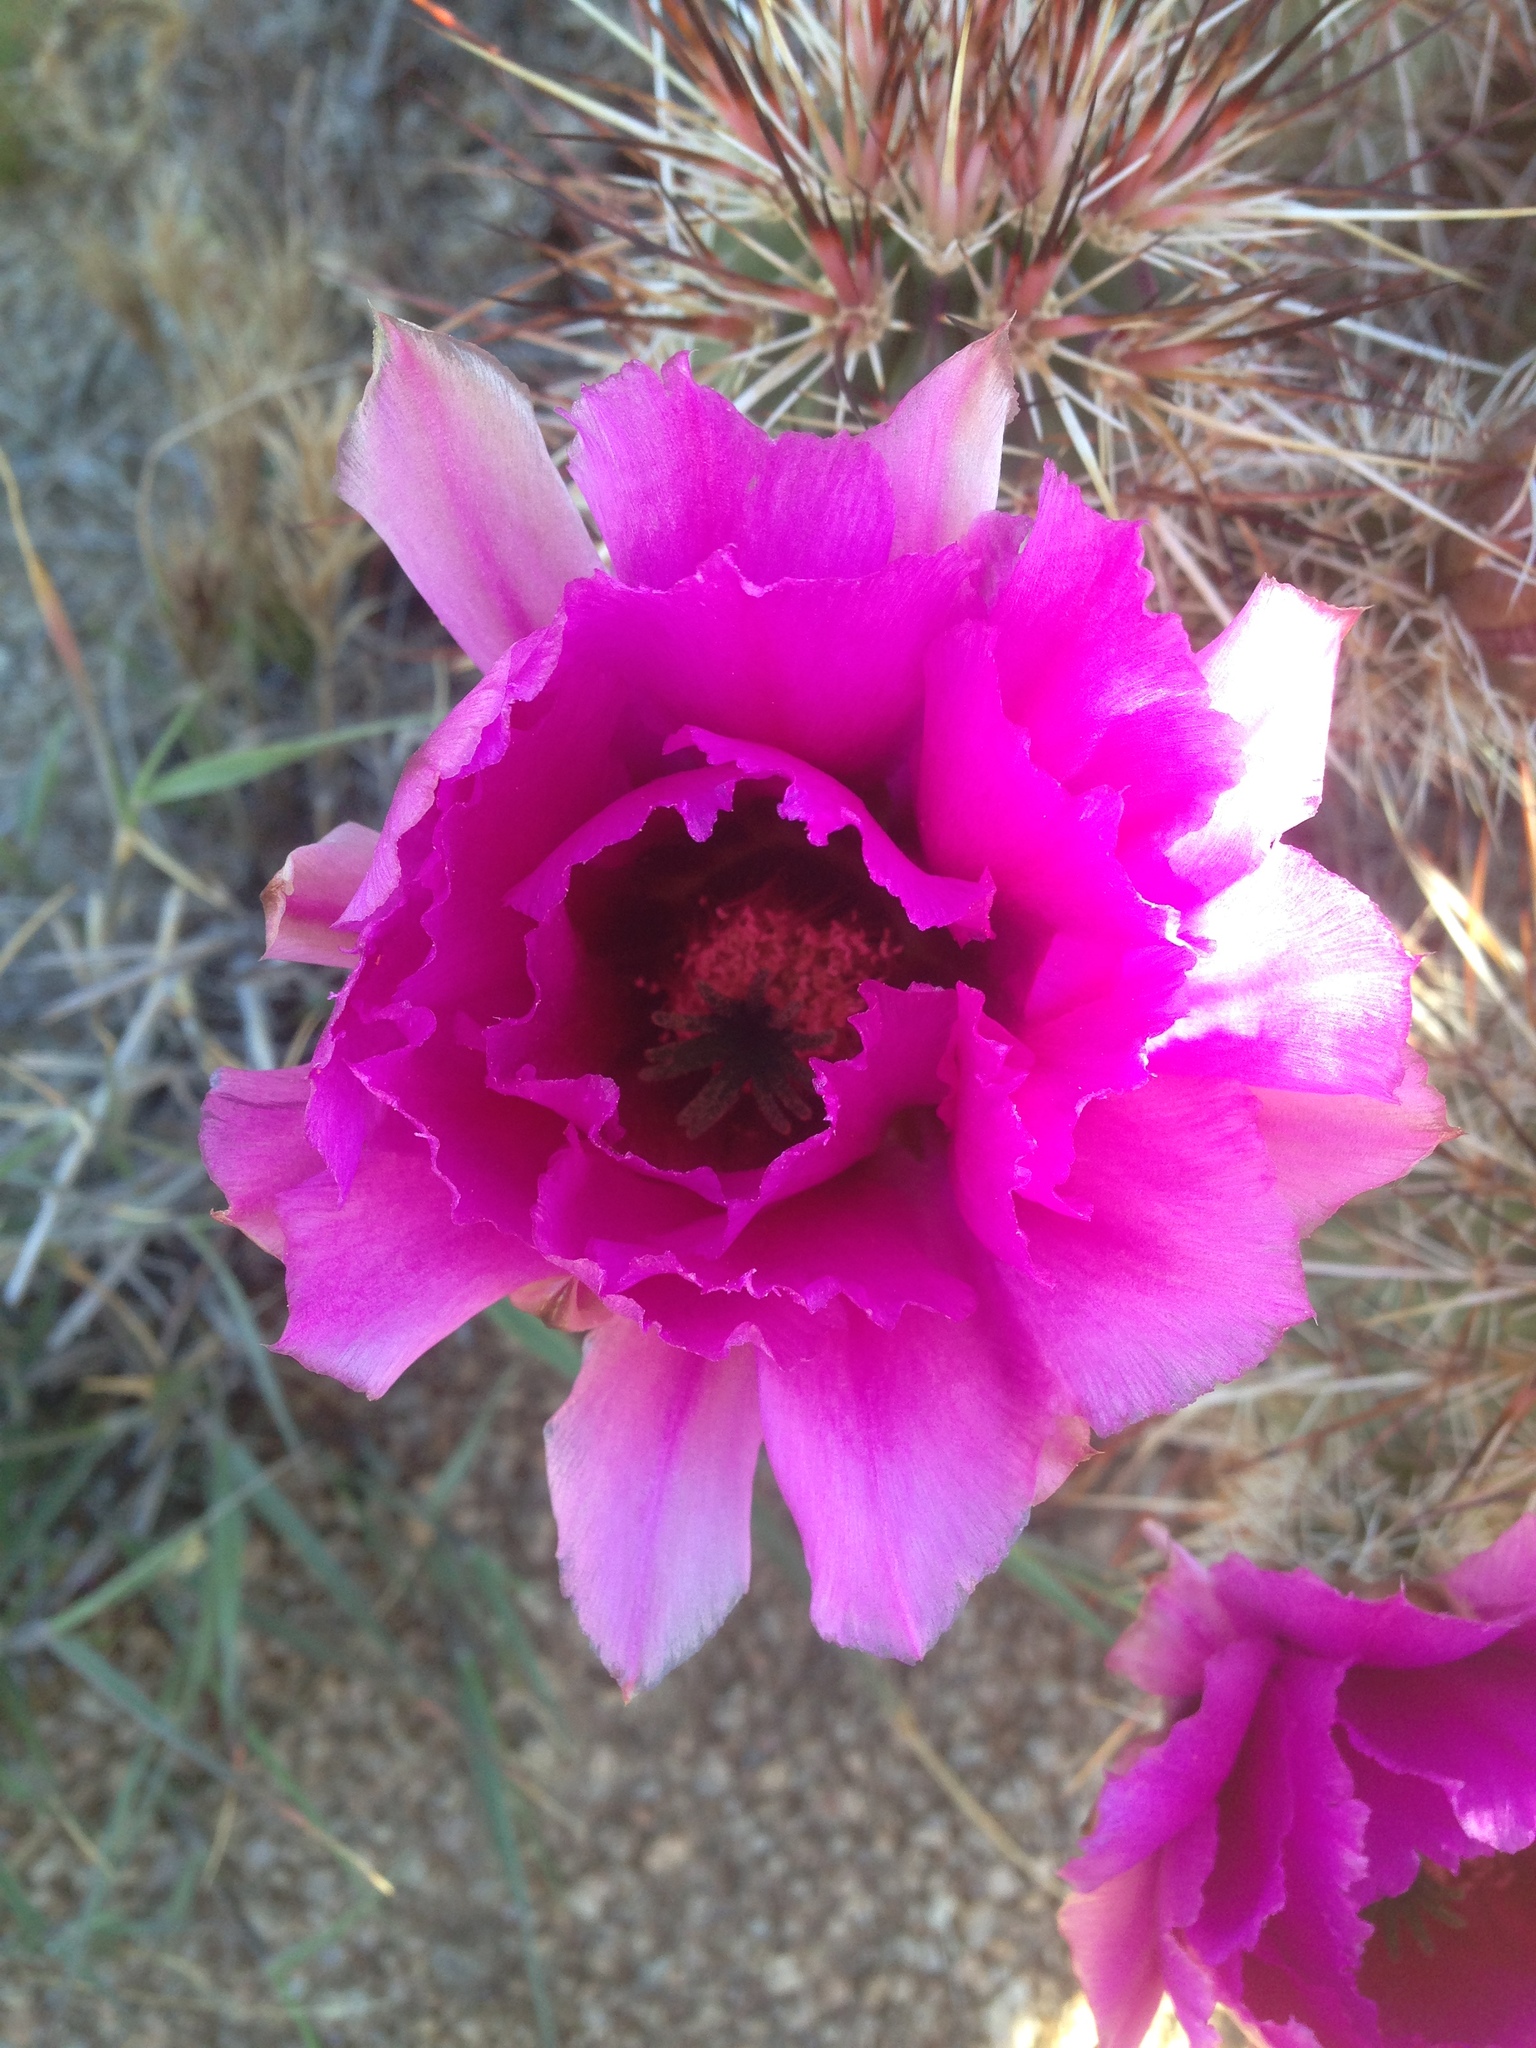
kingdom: Plantae
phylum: Tracheophyta
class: Magnoliopsida
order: Caryophyllales
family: Cactaceae
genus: Echinocereus
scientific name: Echinocereus engelmannii
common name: Engelmann's hedgehog cactus
